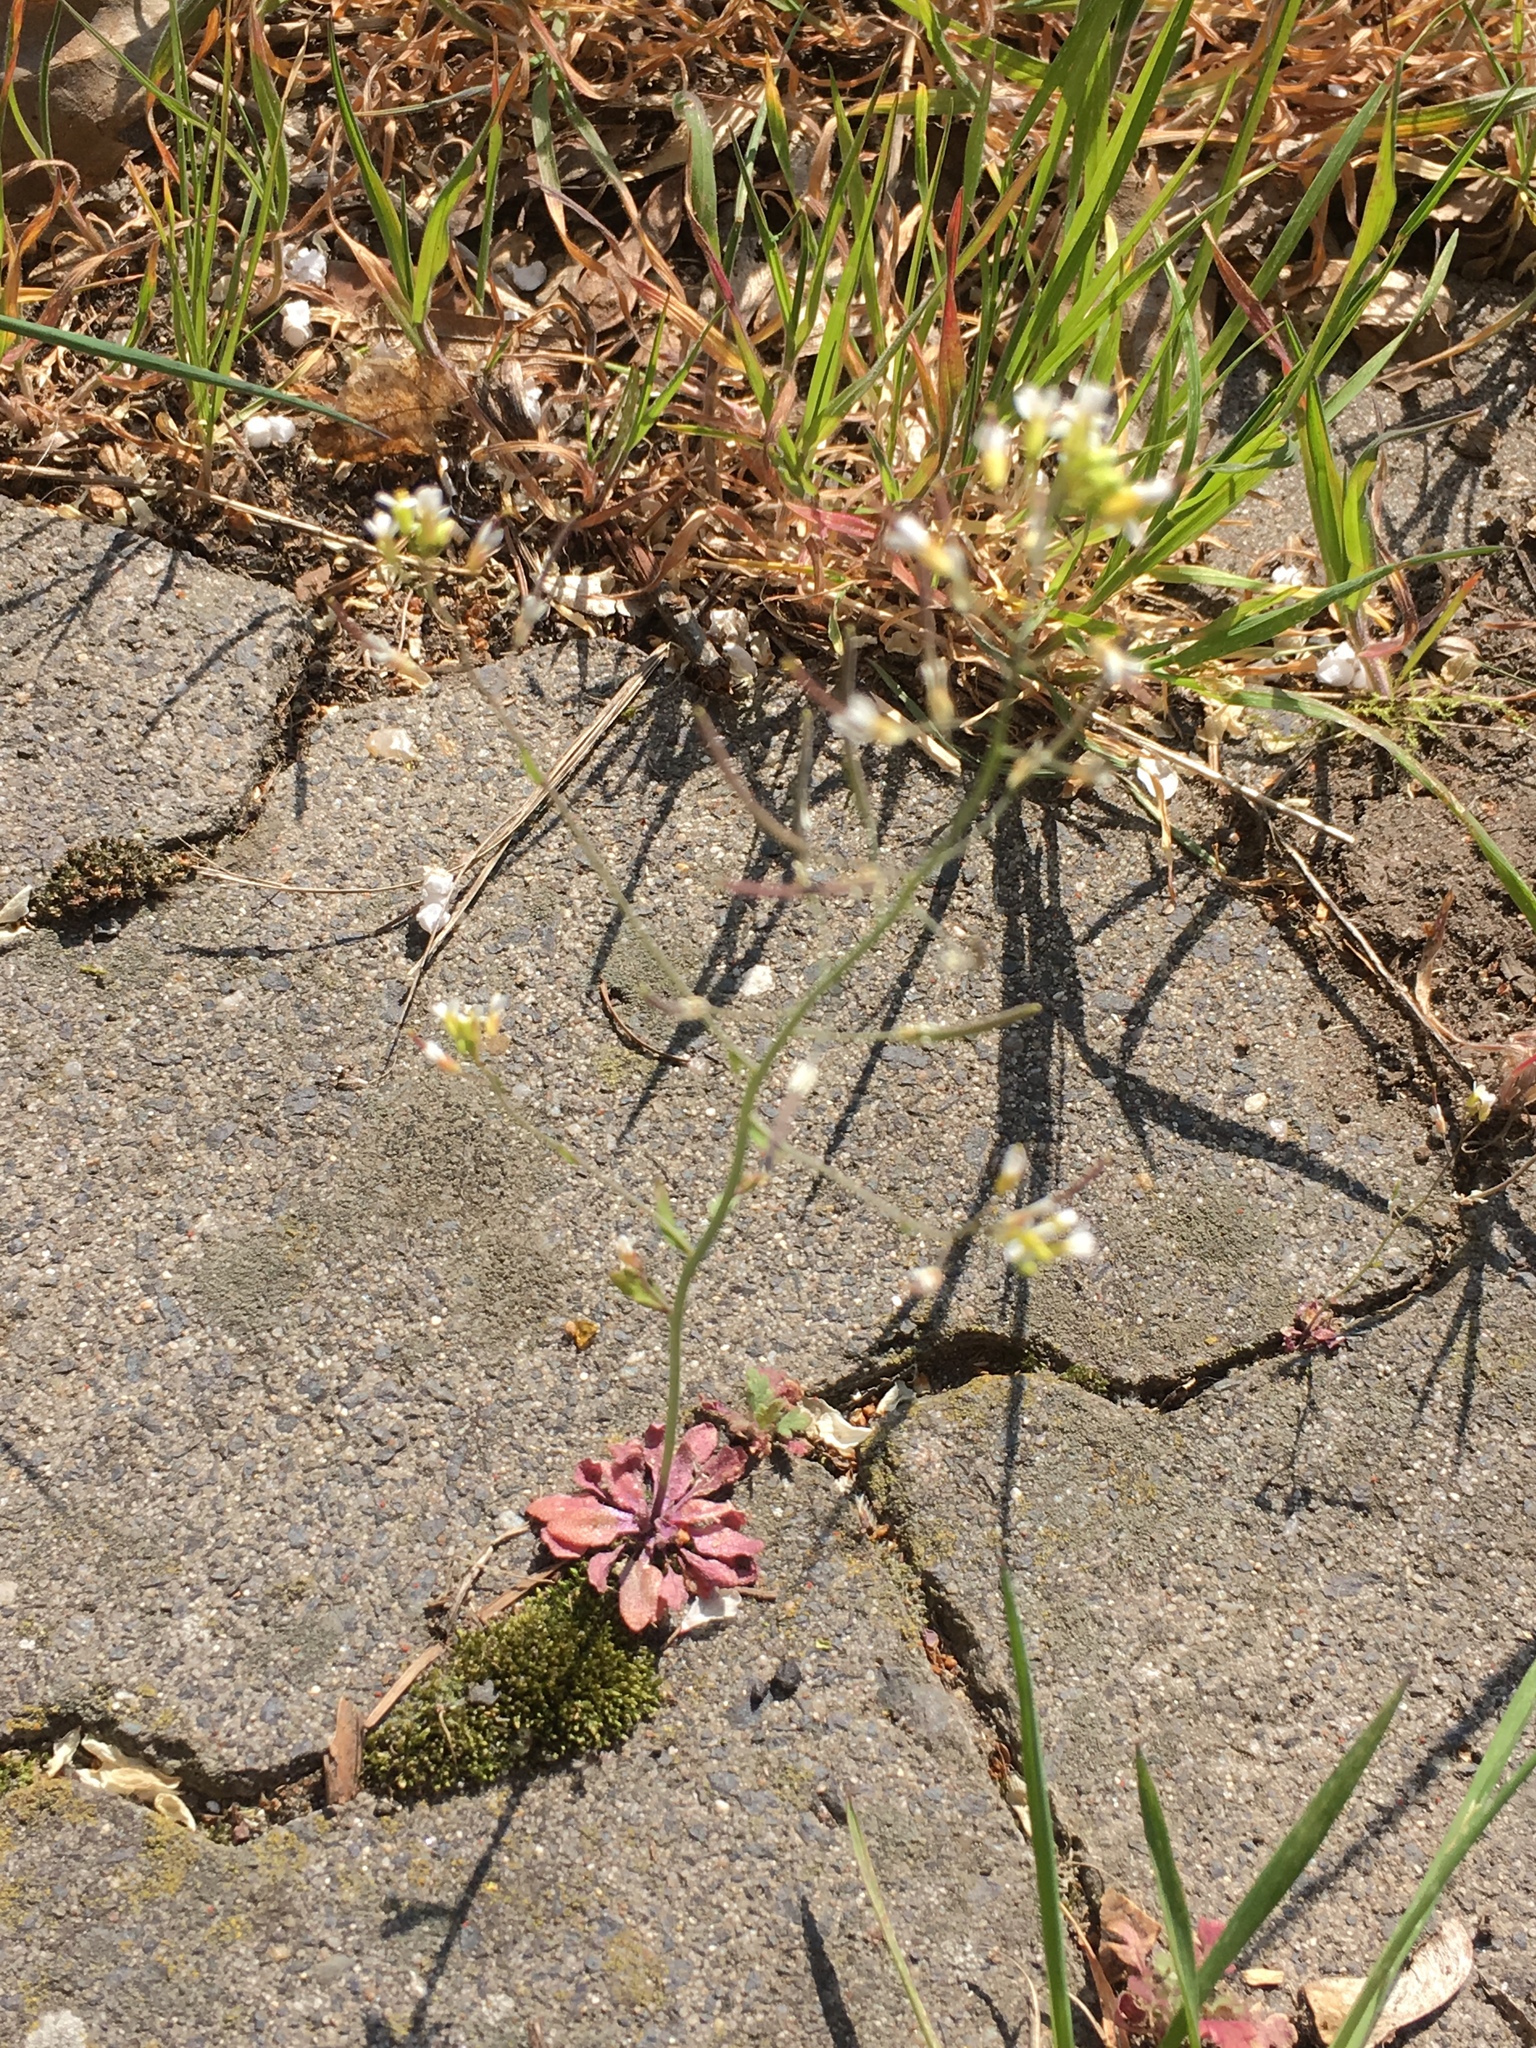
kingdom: Plantae
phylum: Tracheophyta
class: Magnoliopsida
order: Brassicales
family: Brassicaceae
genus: Arabidopsis
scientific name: Arabidopsis thaliana
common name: Thale cress
